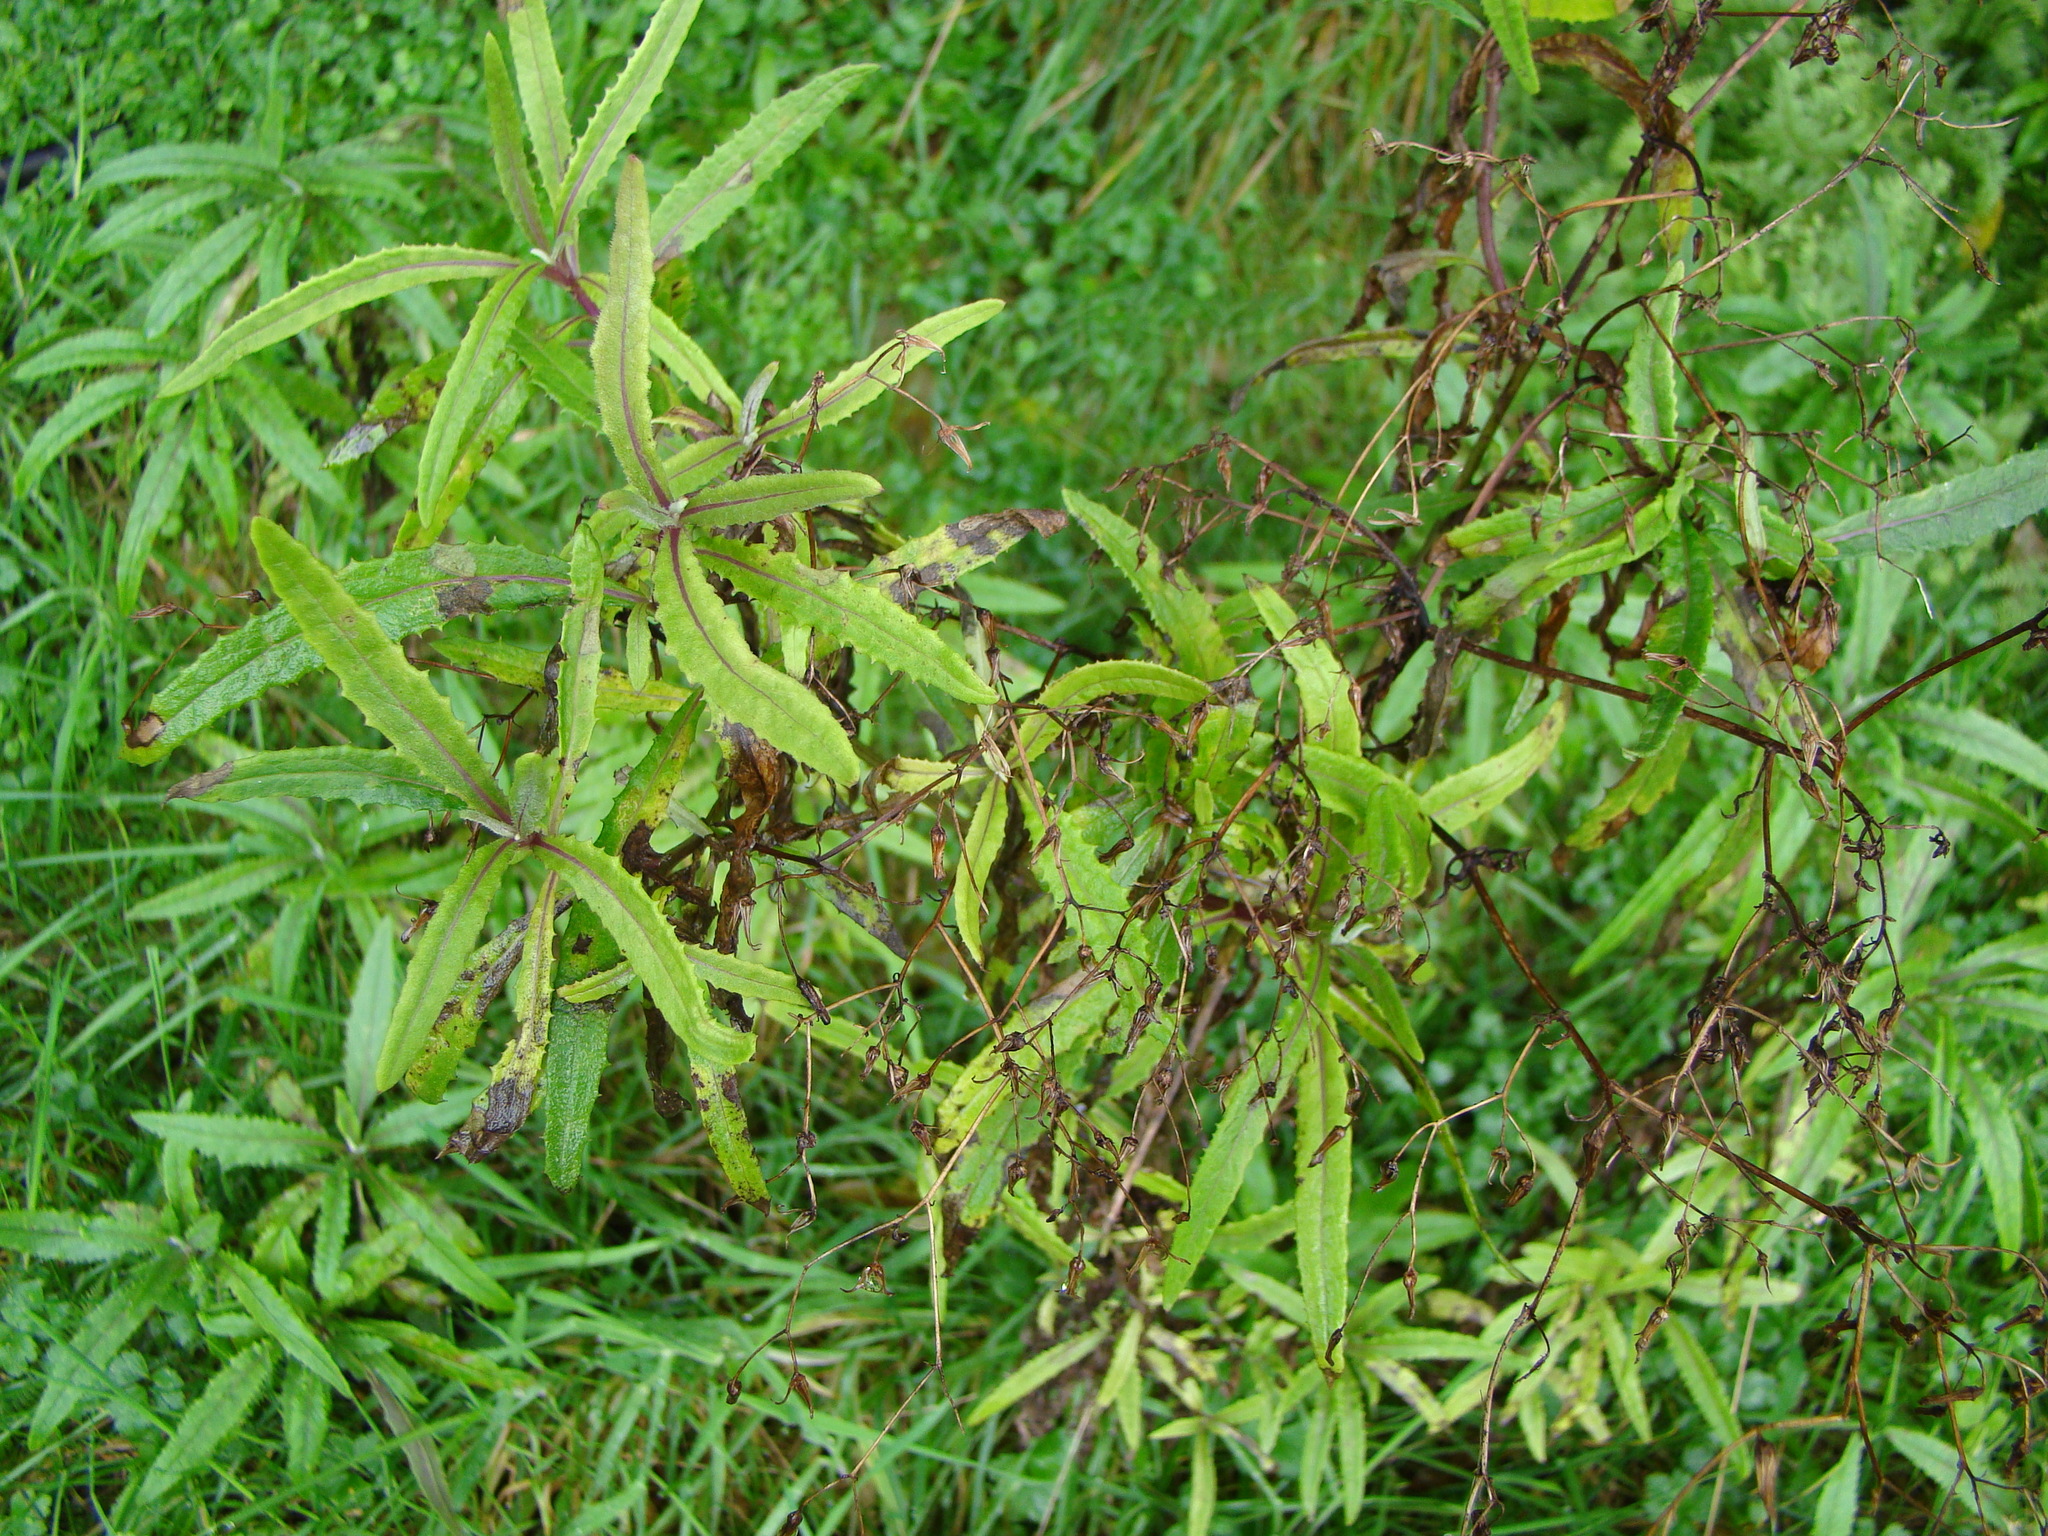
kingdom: Plantae
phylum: Tracheophyta
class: Magnoliopsida
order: Asterales
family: Asteraceae
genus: Senecio
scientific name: Senecio minimus
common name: Toothed fireweed
